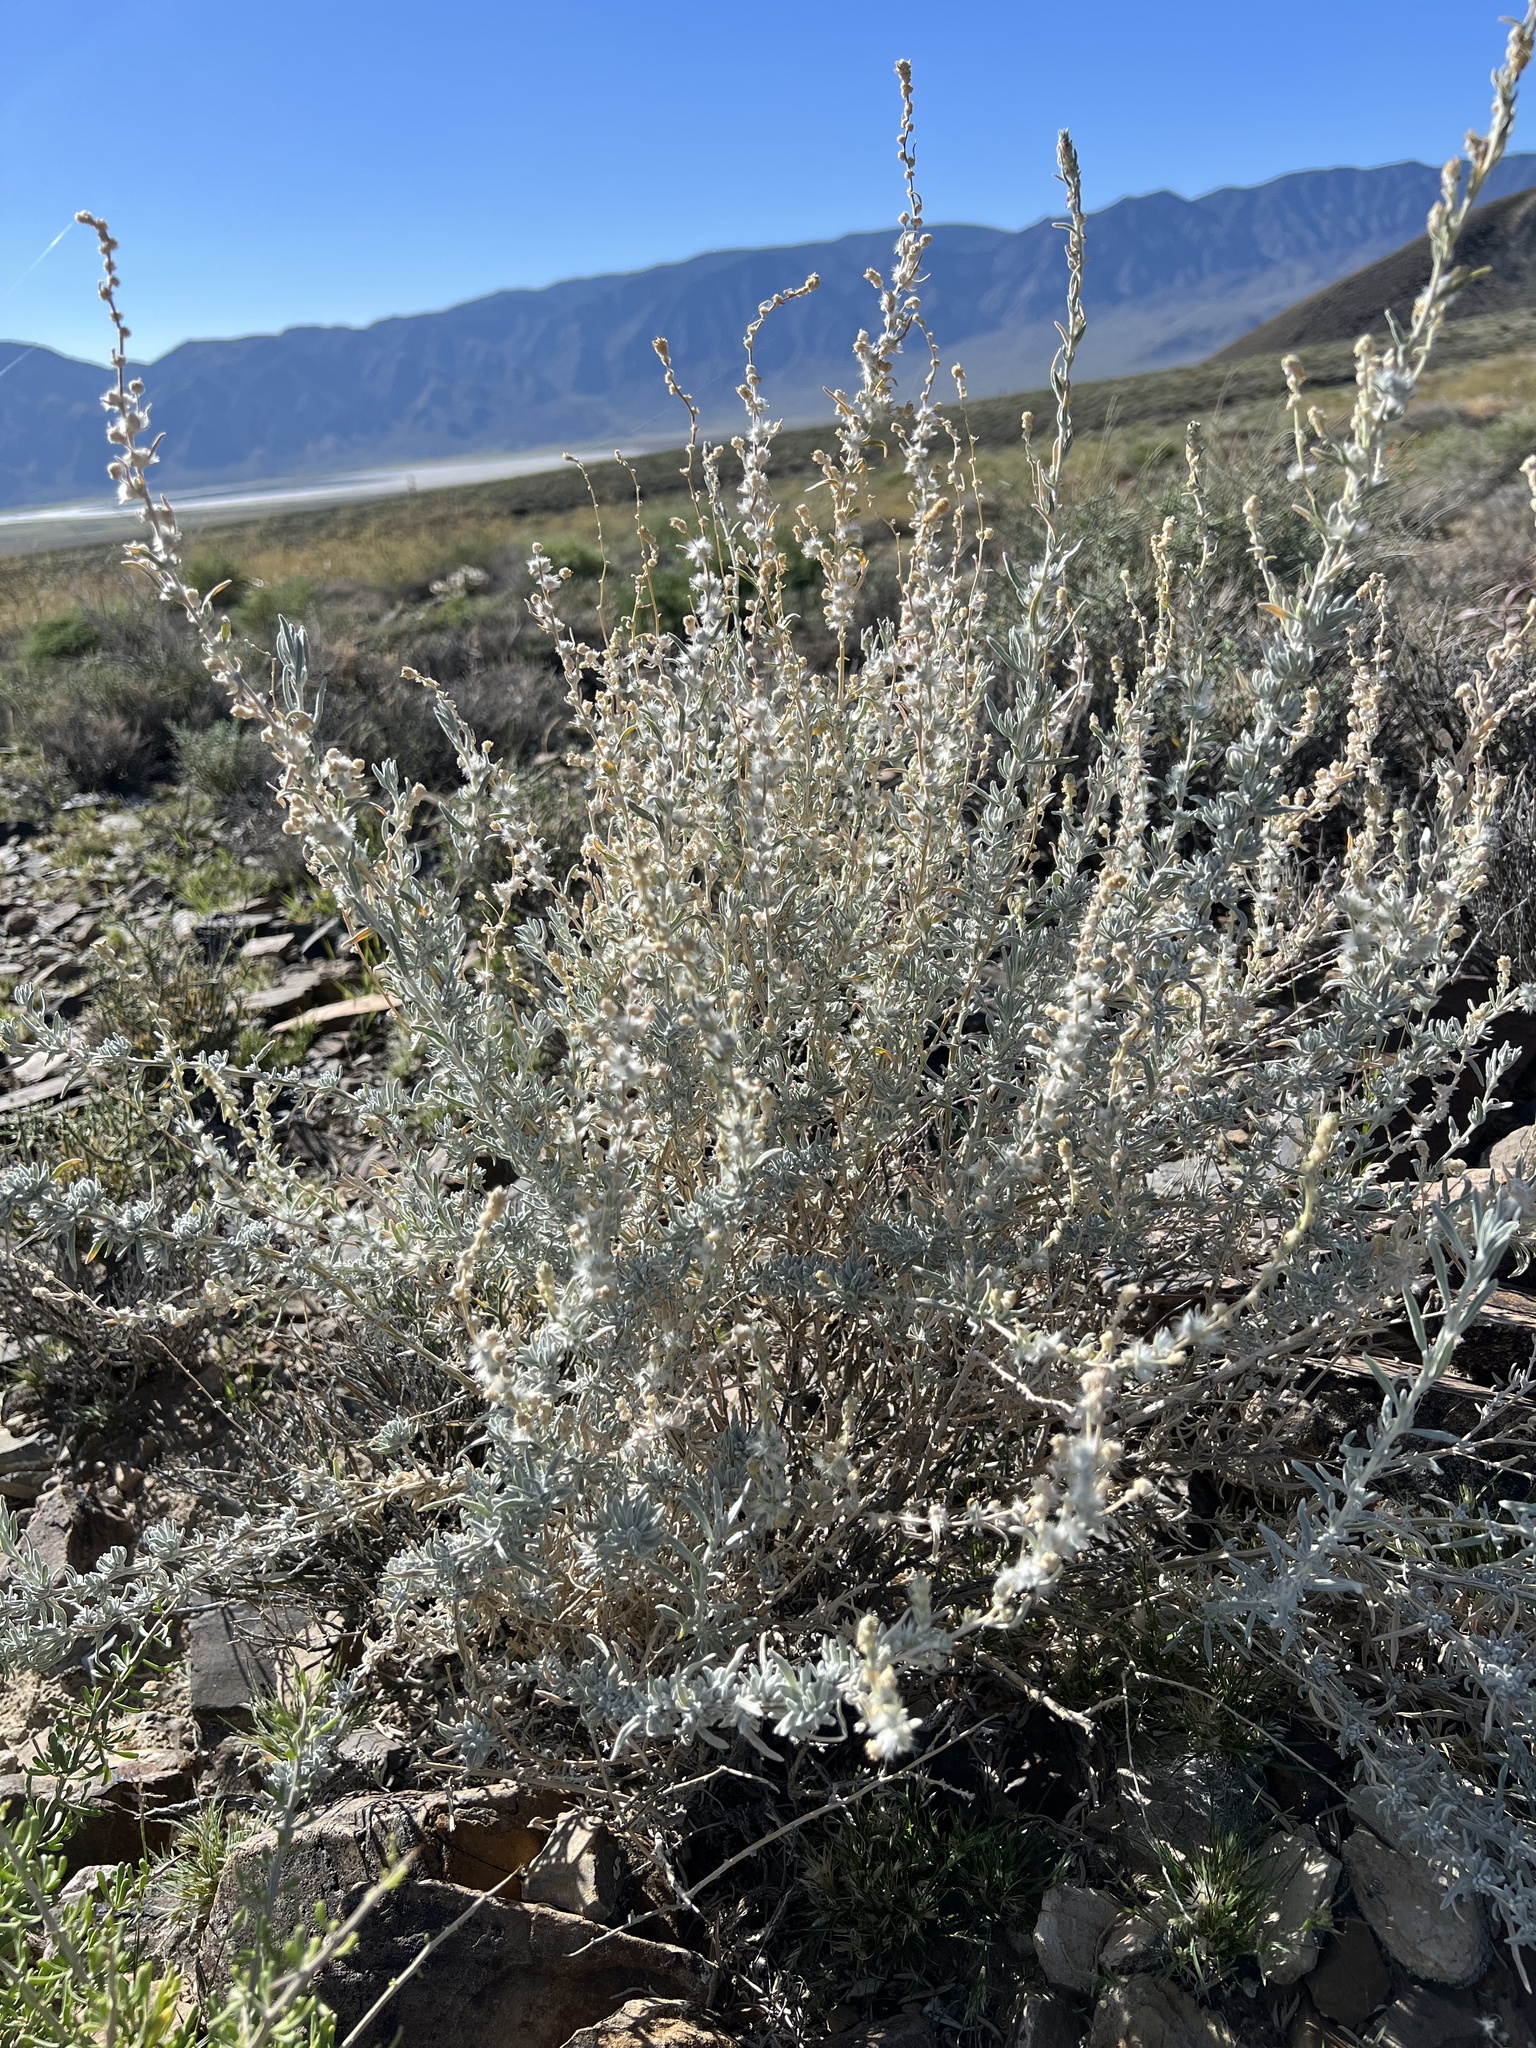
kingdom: Plantae
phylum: Tracheophyta
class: Magnoliopsida
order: Caryophyllales
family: Amaranthaceae
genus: Krascheninnikovia
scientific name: Krascheninnikovia lanata
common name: Winterfat
